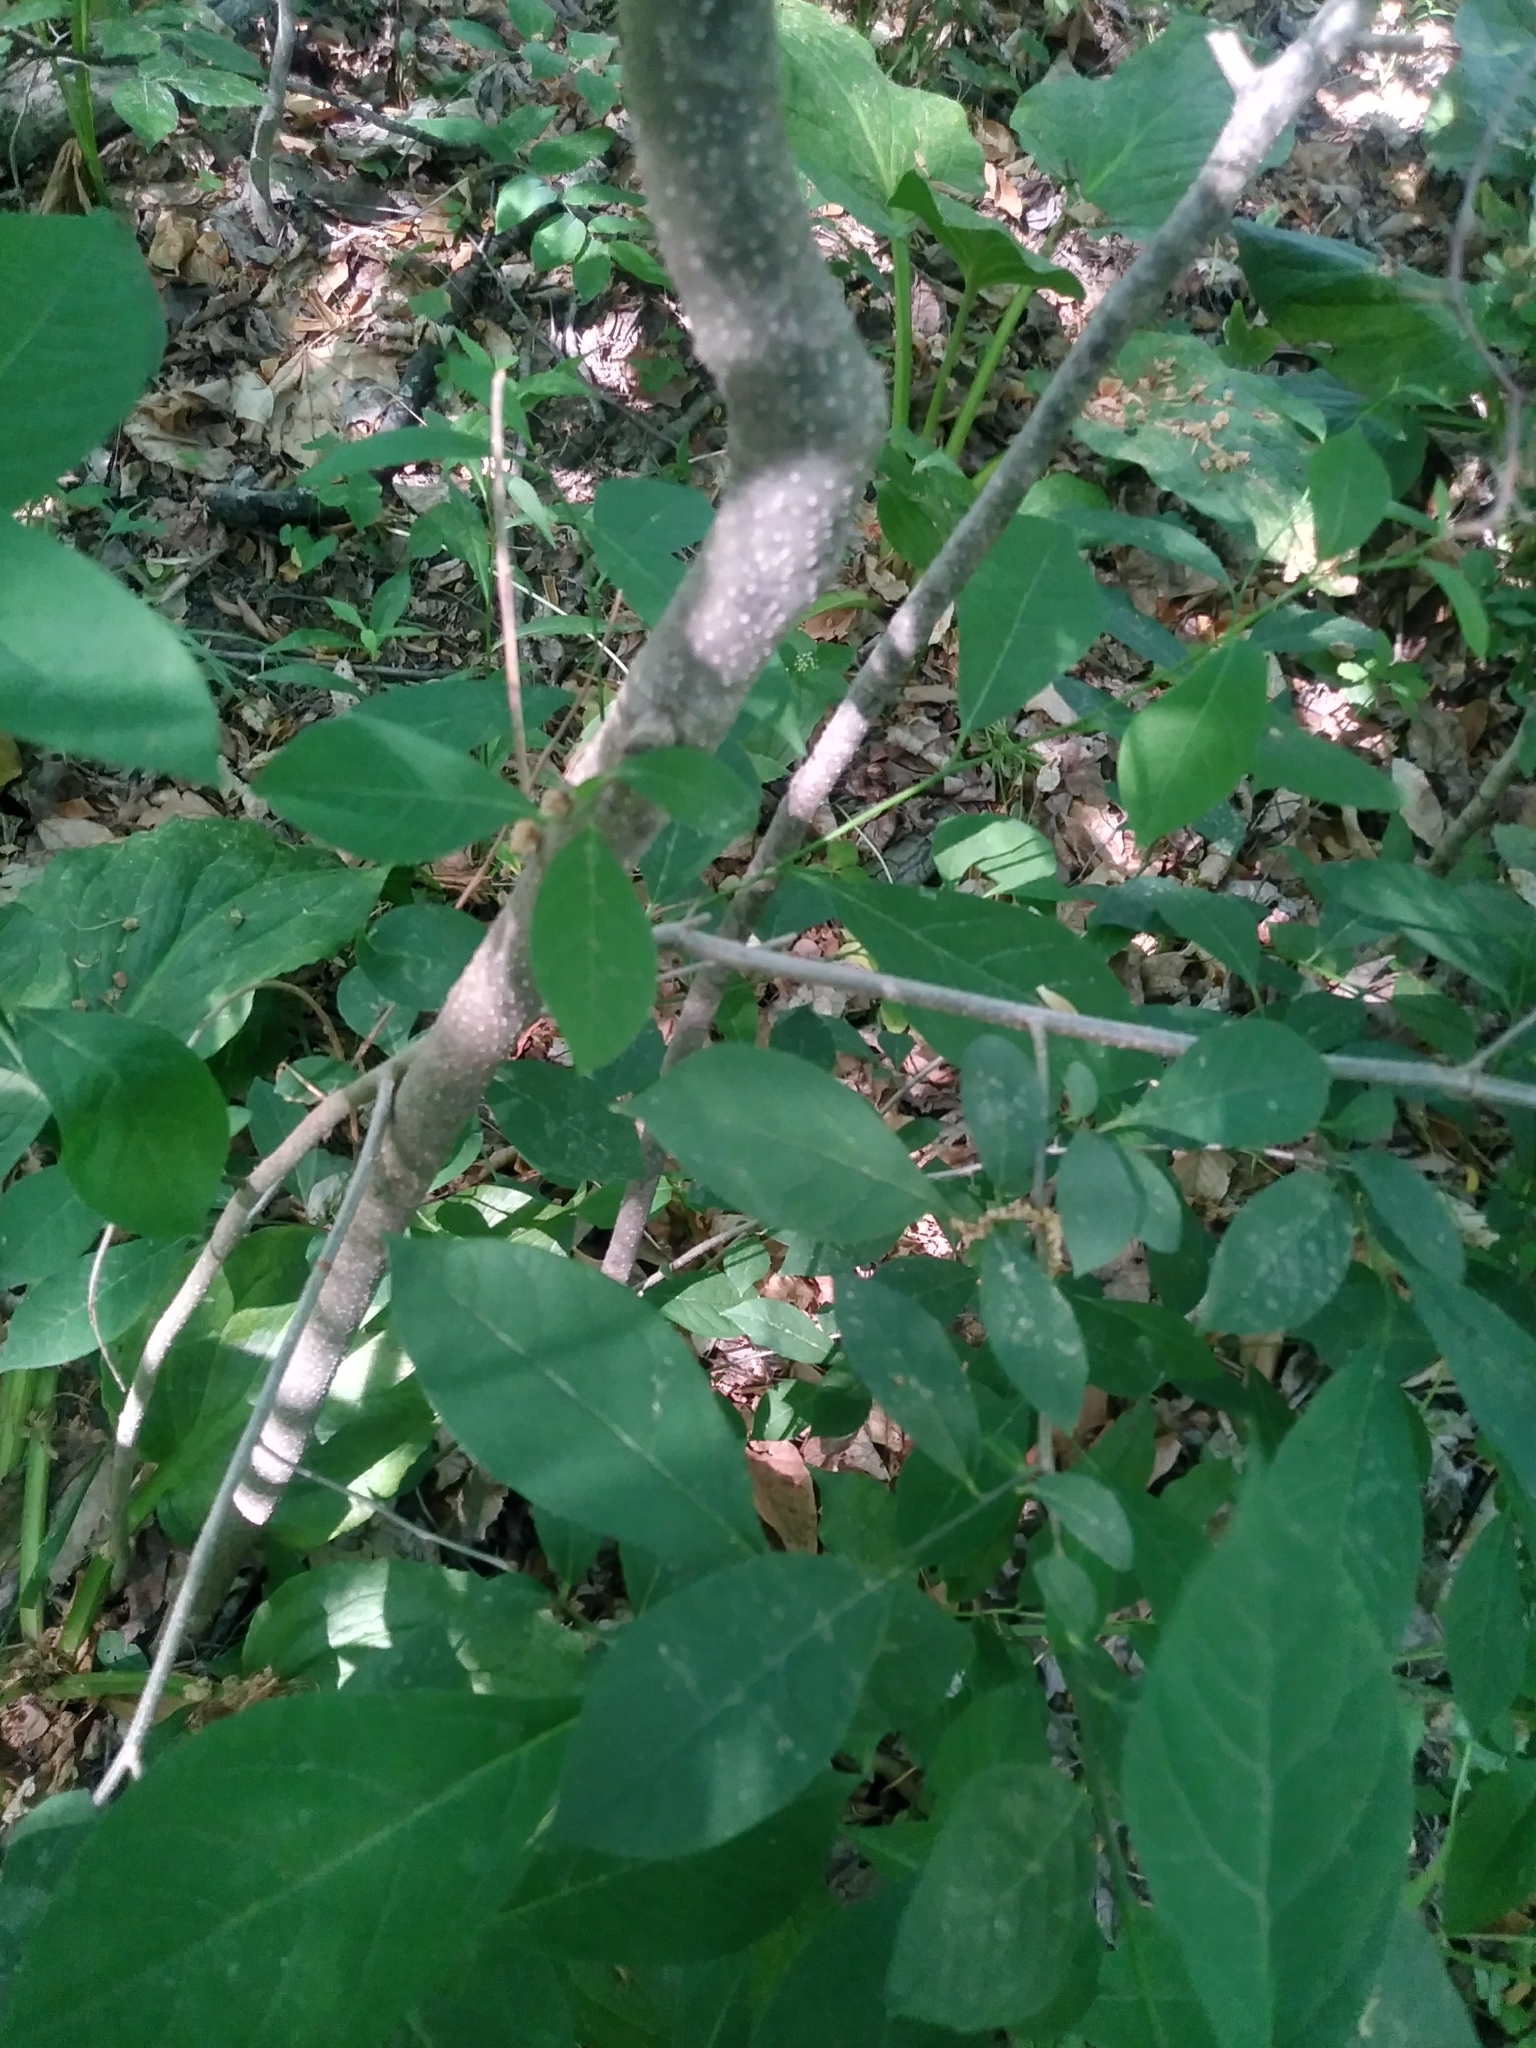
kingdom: Plantae
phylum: Tracheophyta
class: Magnoliopsida
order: Laurales
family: Lauraceae
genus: Lindera
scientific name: Lindera benzoin
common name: Spicebush
